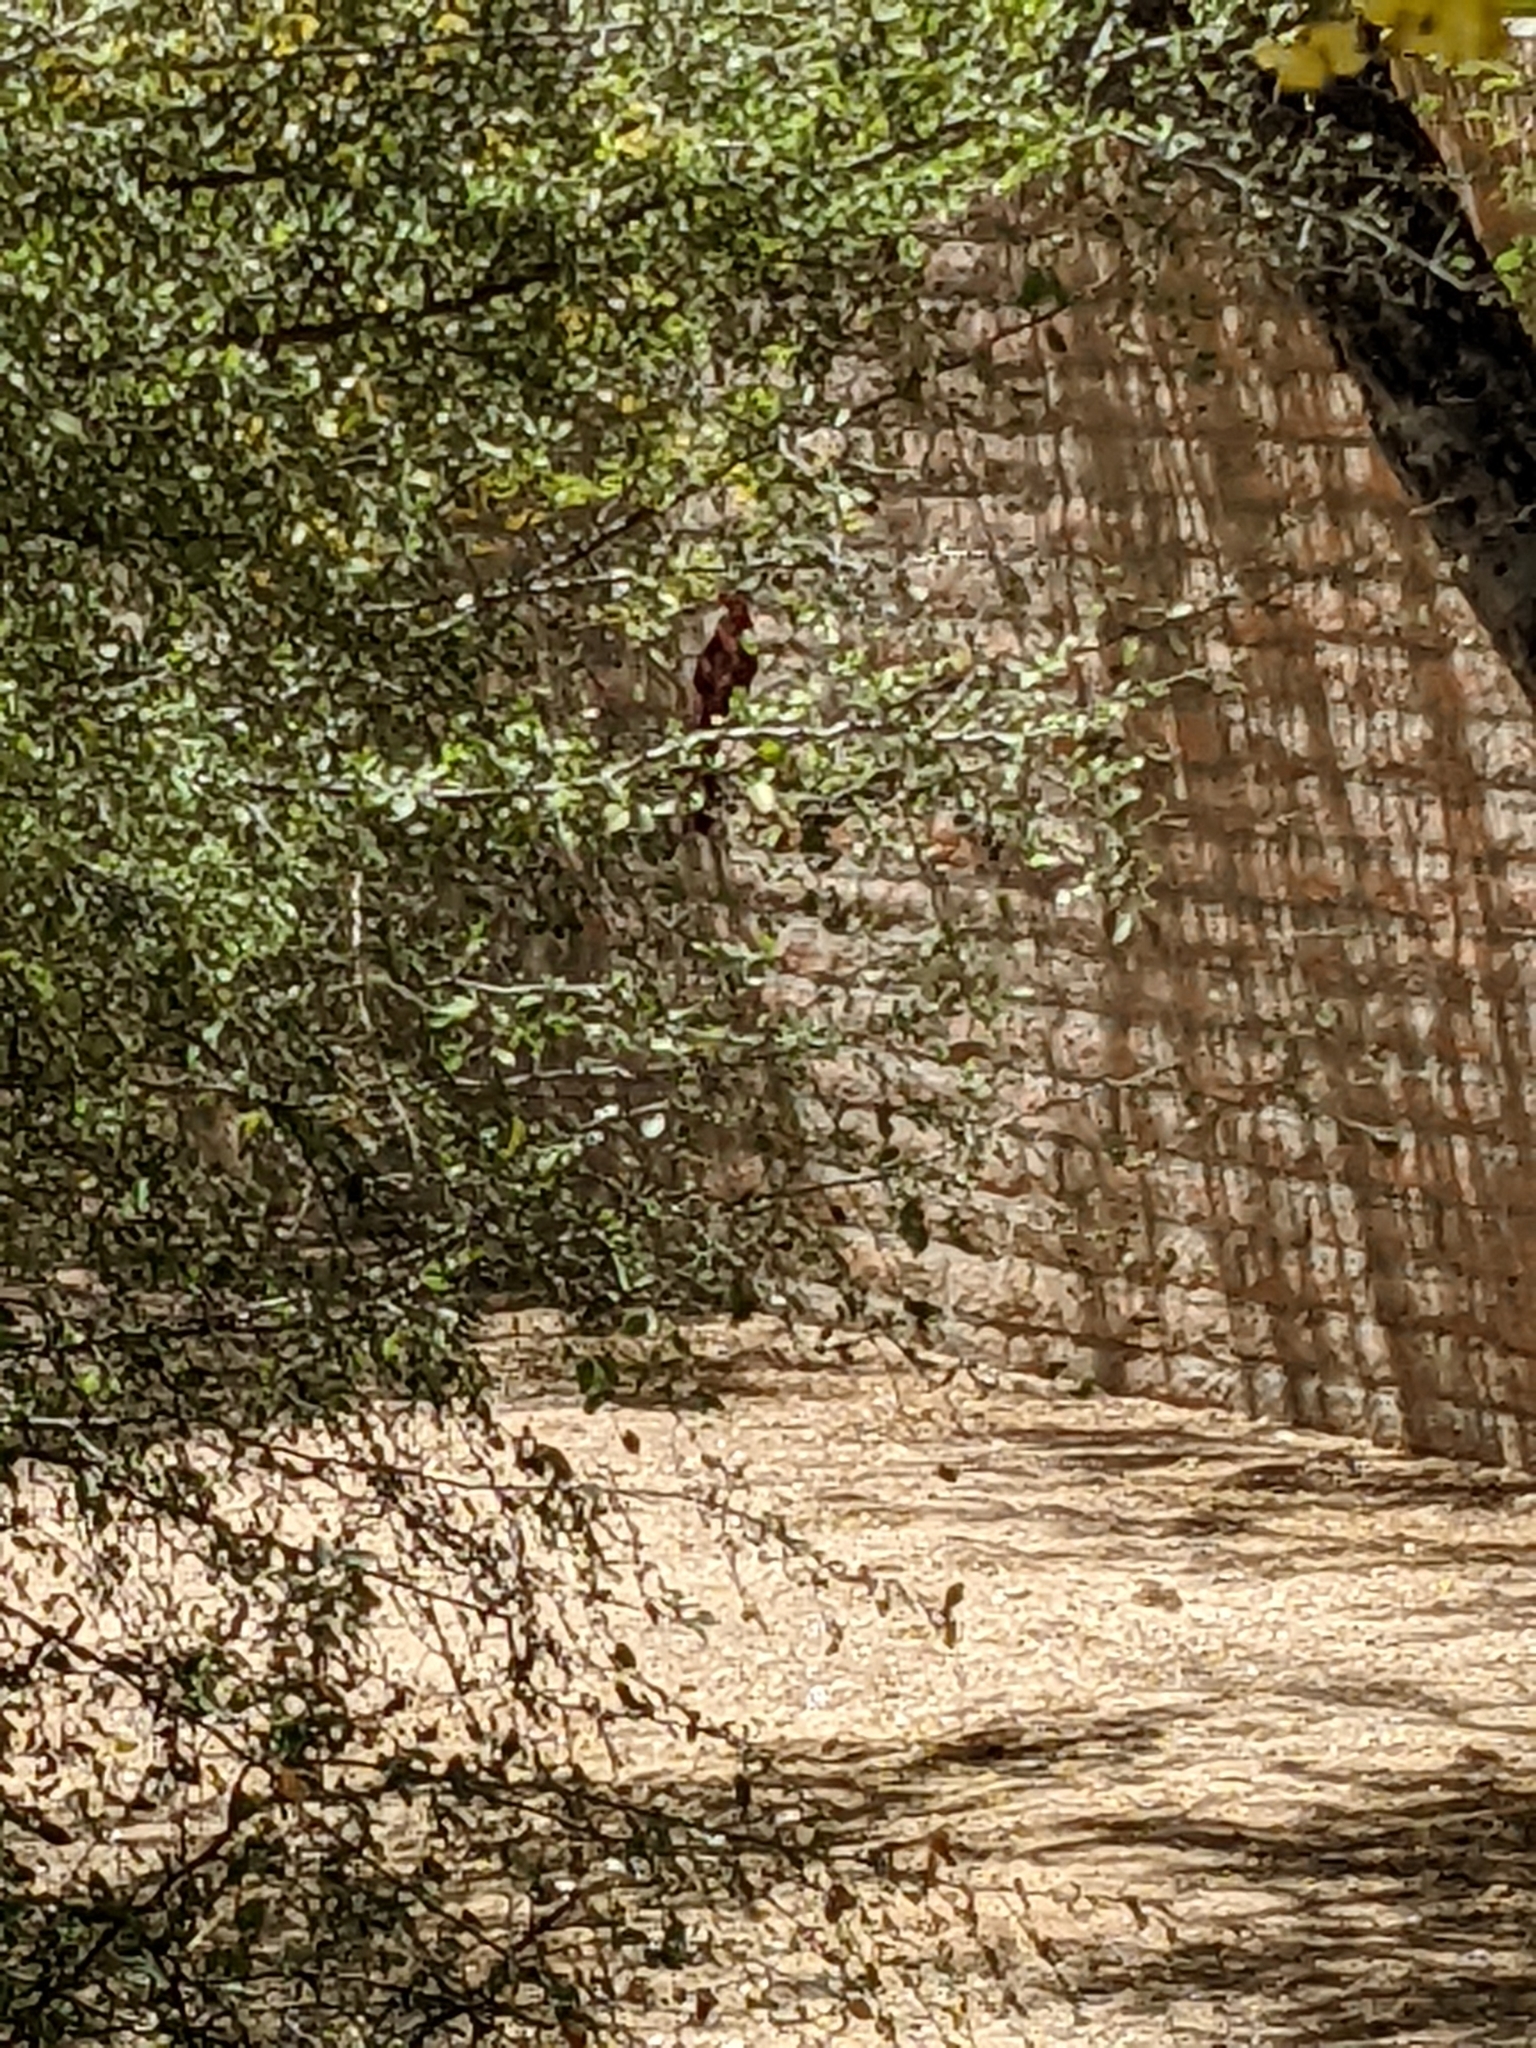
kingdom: Animalia
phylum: Chordata
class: Aves
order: Passeriformes
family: Cardinalidae
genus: Cardinalis
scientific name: Cardinalis cardinalis
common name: Northern cardinal
